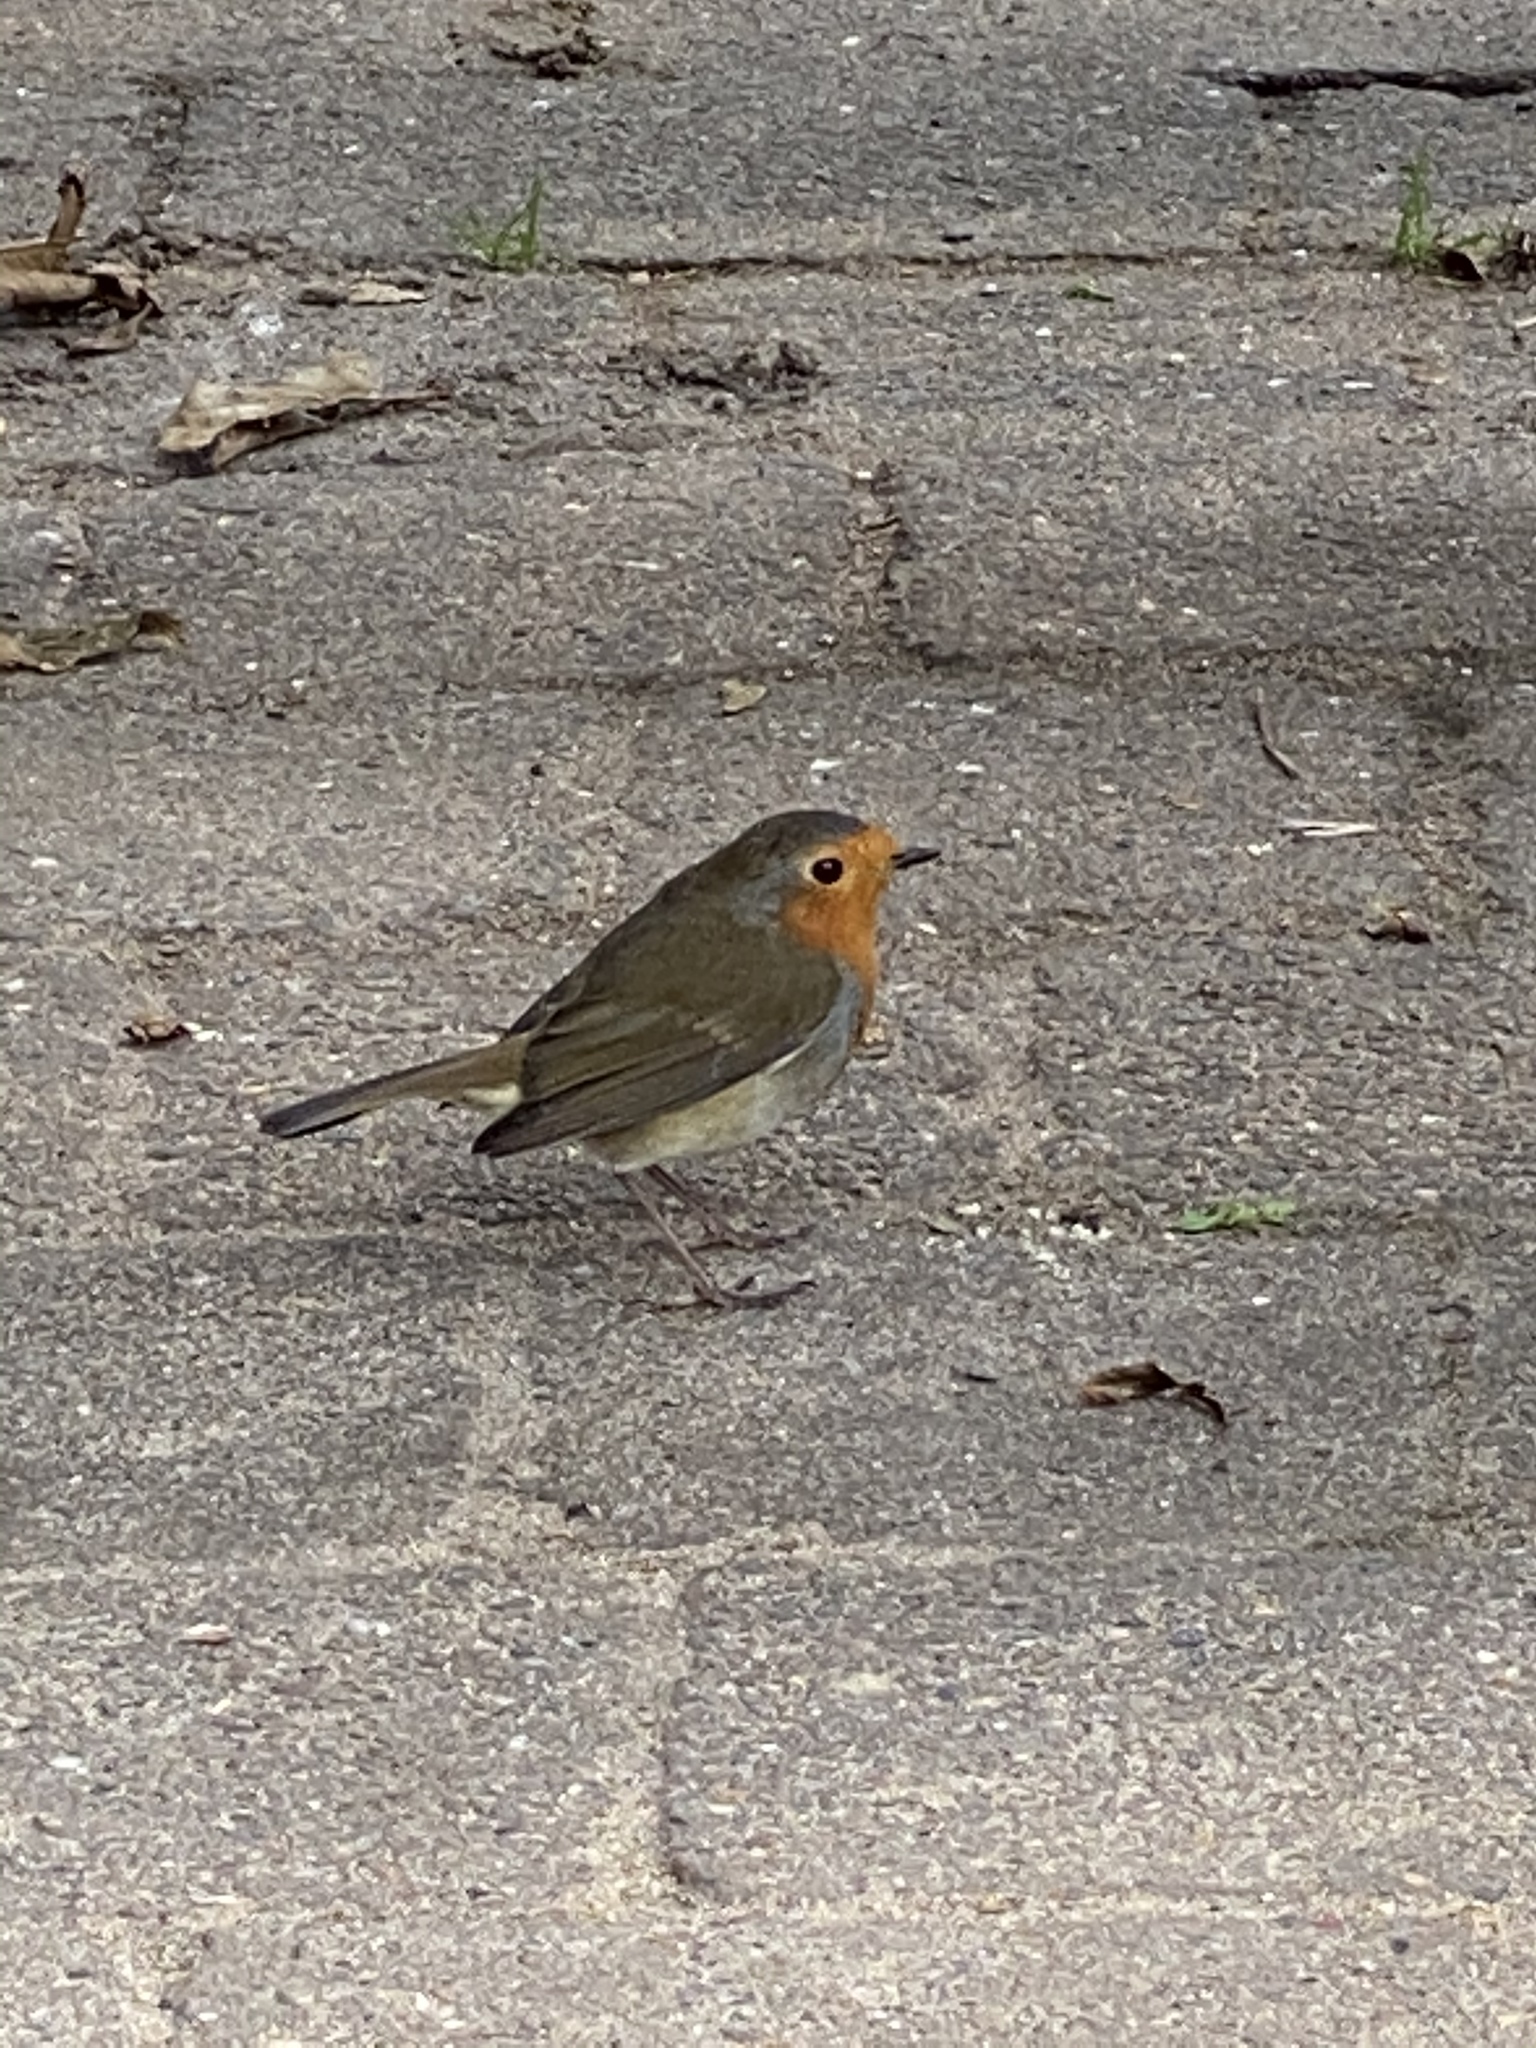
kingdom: Animalia
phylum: Chordata
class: Aves
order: Passeriformes
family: Muscicapidae
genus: Erithacus
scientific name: Erithacus rubecula
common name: European robin
